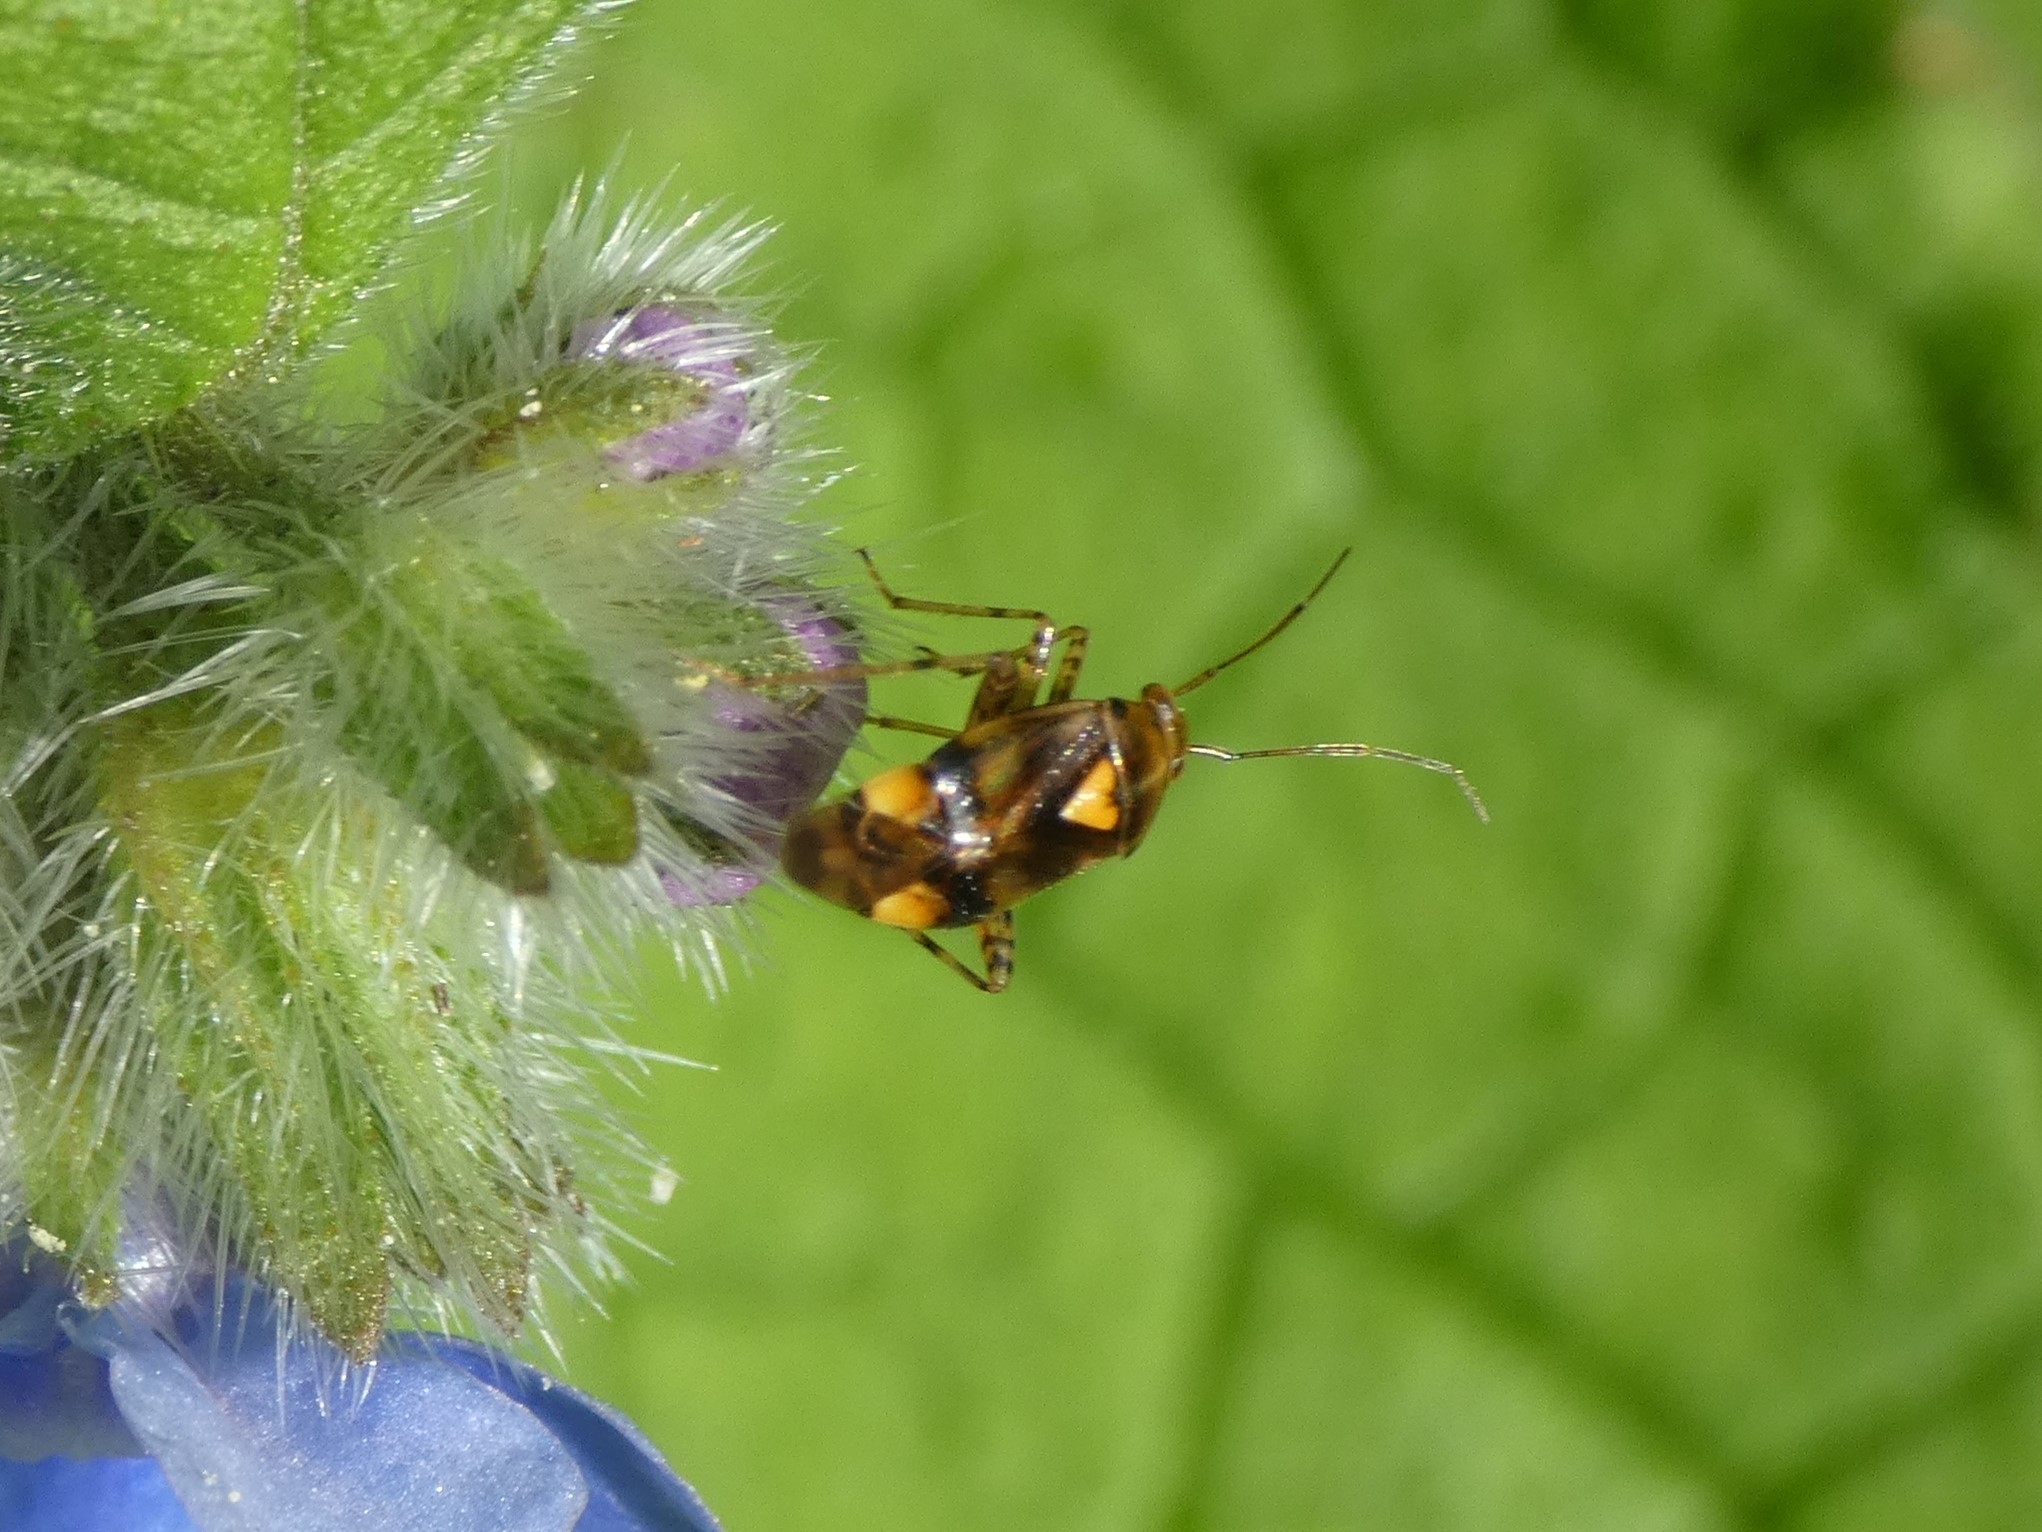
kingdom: Animalia
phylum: Arthropoda
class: Insecta
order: Hemiptera
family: Miridae
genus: Liocoris
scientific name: Liocoris tripustulatus
